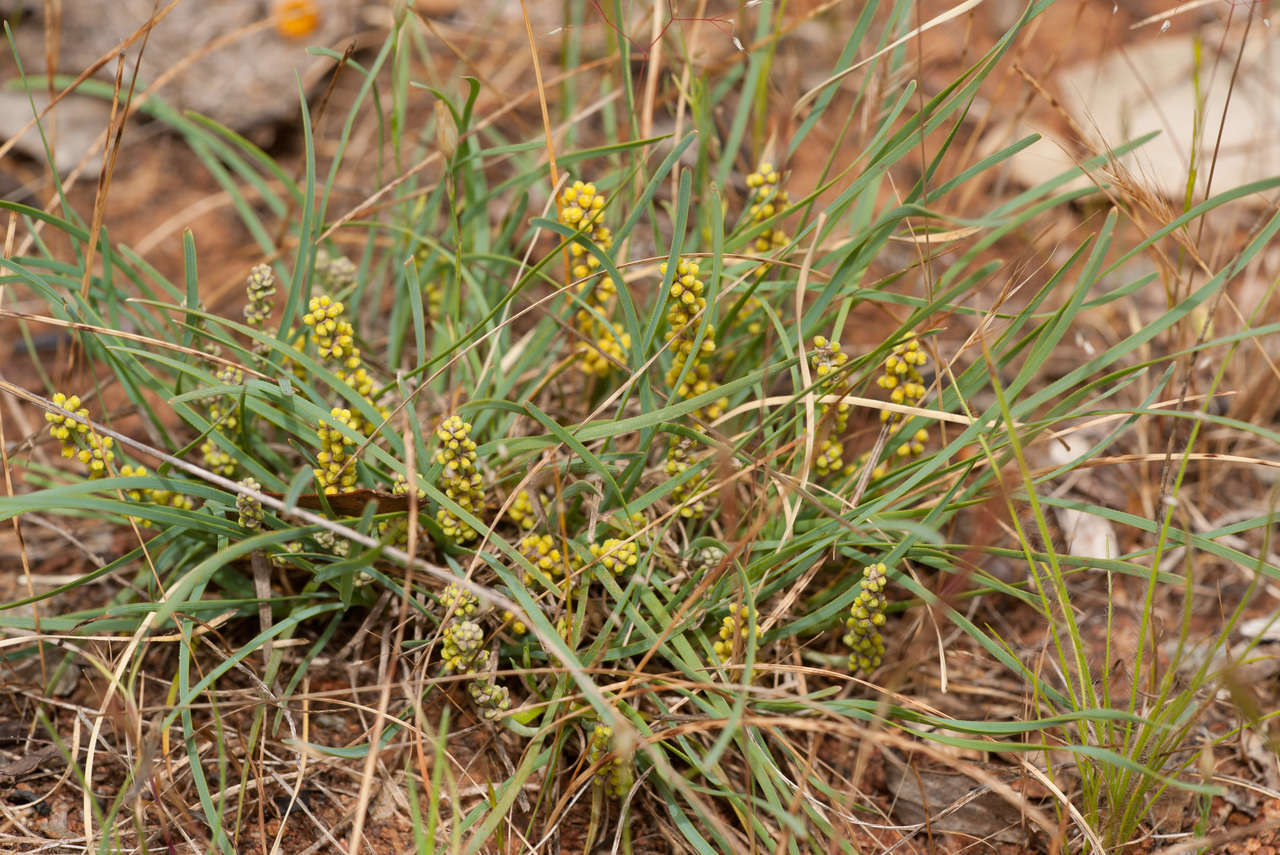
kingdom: Plantae
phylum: Tracheophyta
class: Liliopsida
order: Asparagales
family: Asparagaceae
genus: Lomandra
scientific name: Lomandra nana
